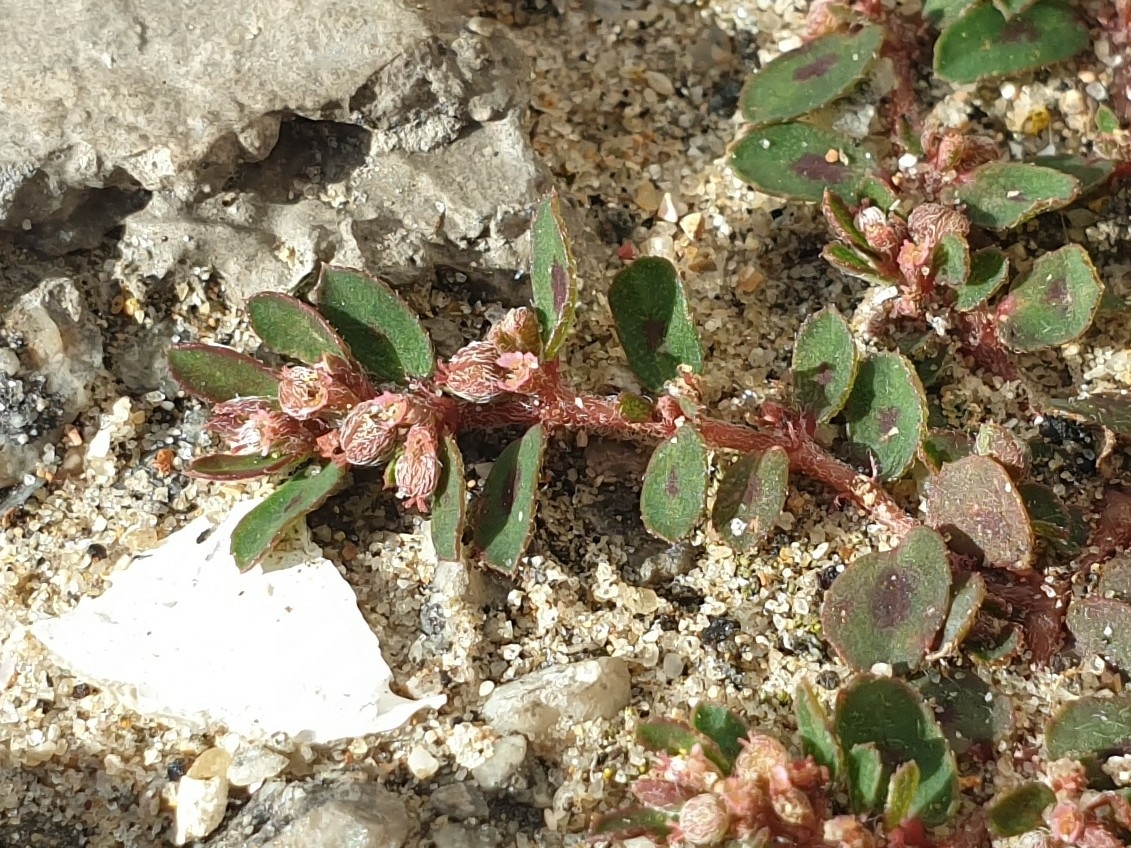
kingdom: Plantae
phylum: Tracheophyta
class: Magnoliopsida
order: Malpighiales
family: Euphorbiaceae
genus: Euphorbia
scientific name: Euphorbia maculata
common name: Spotted spurge
